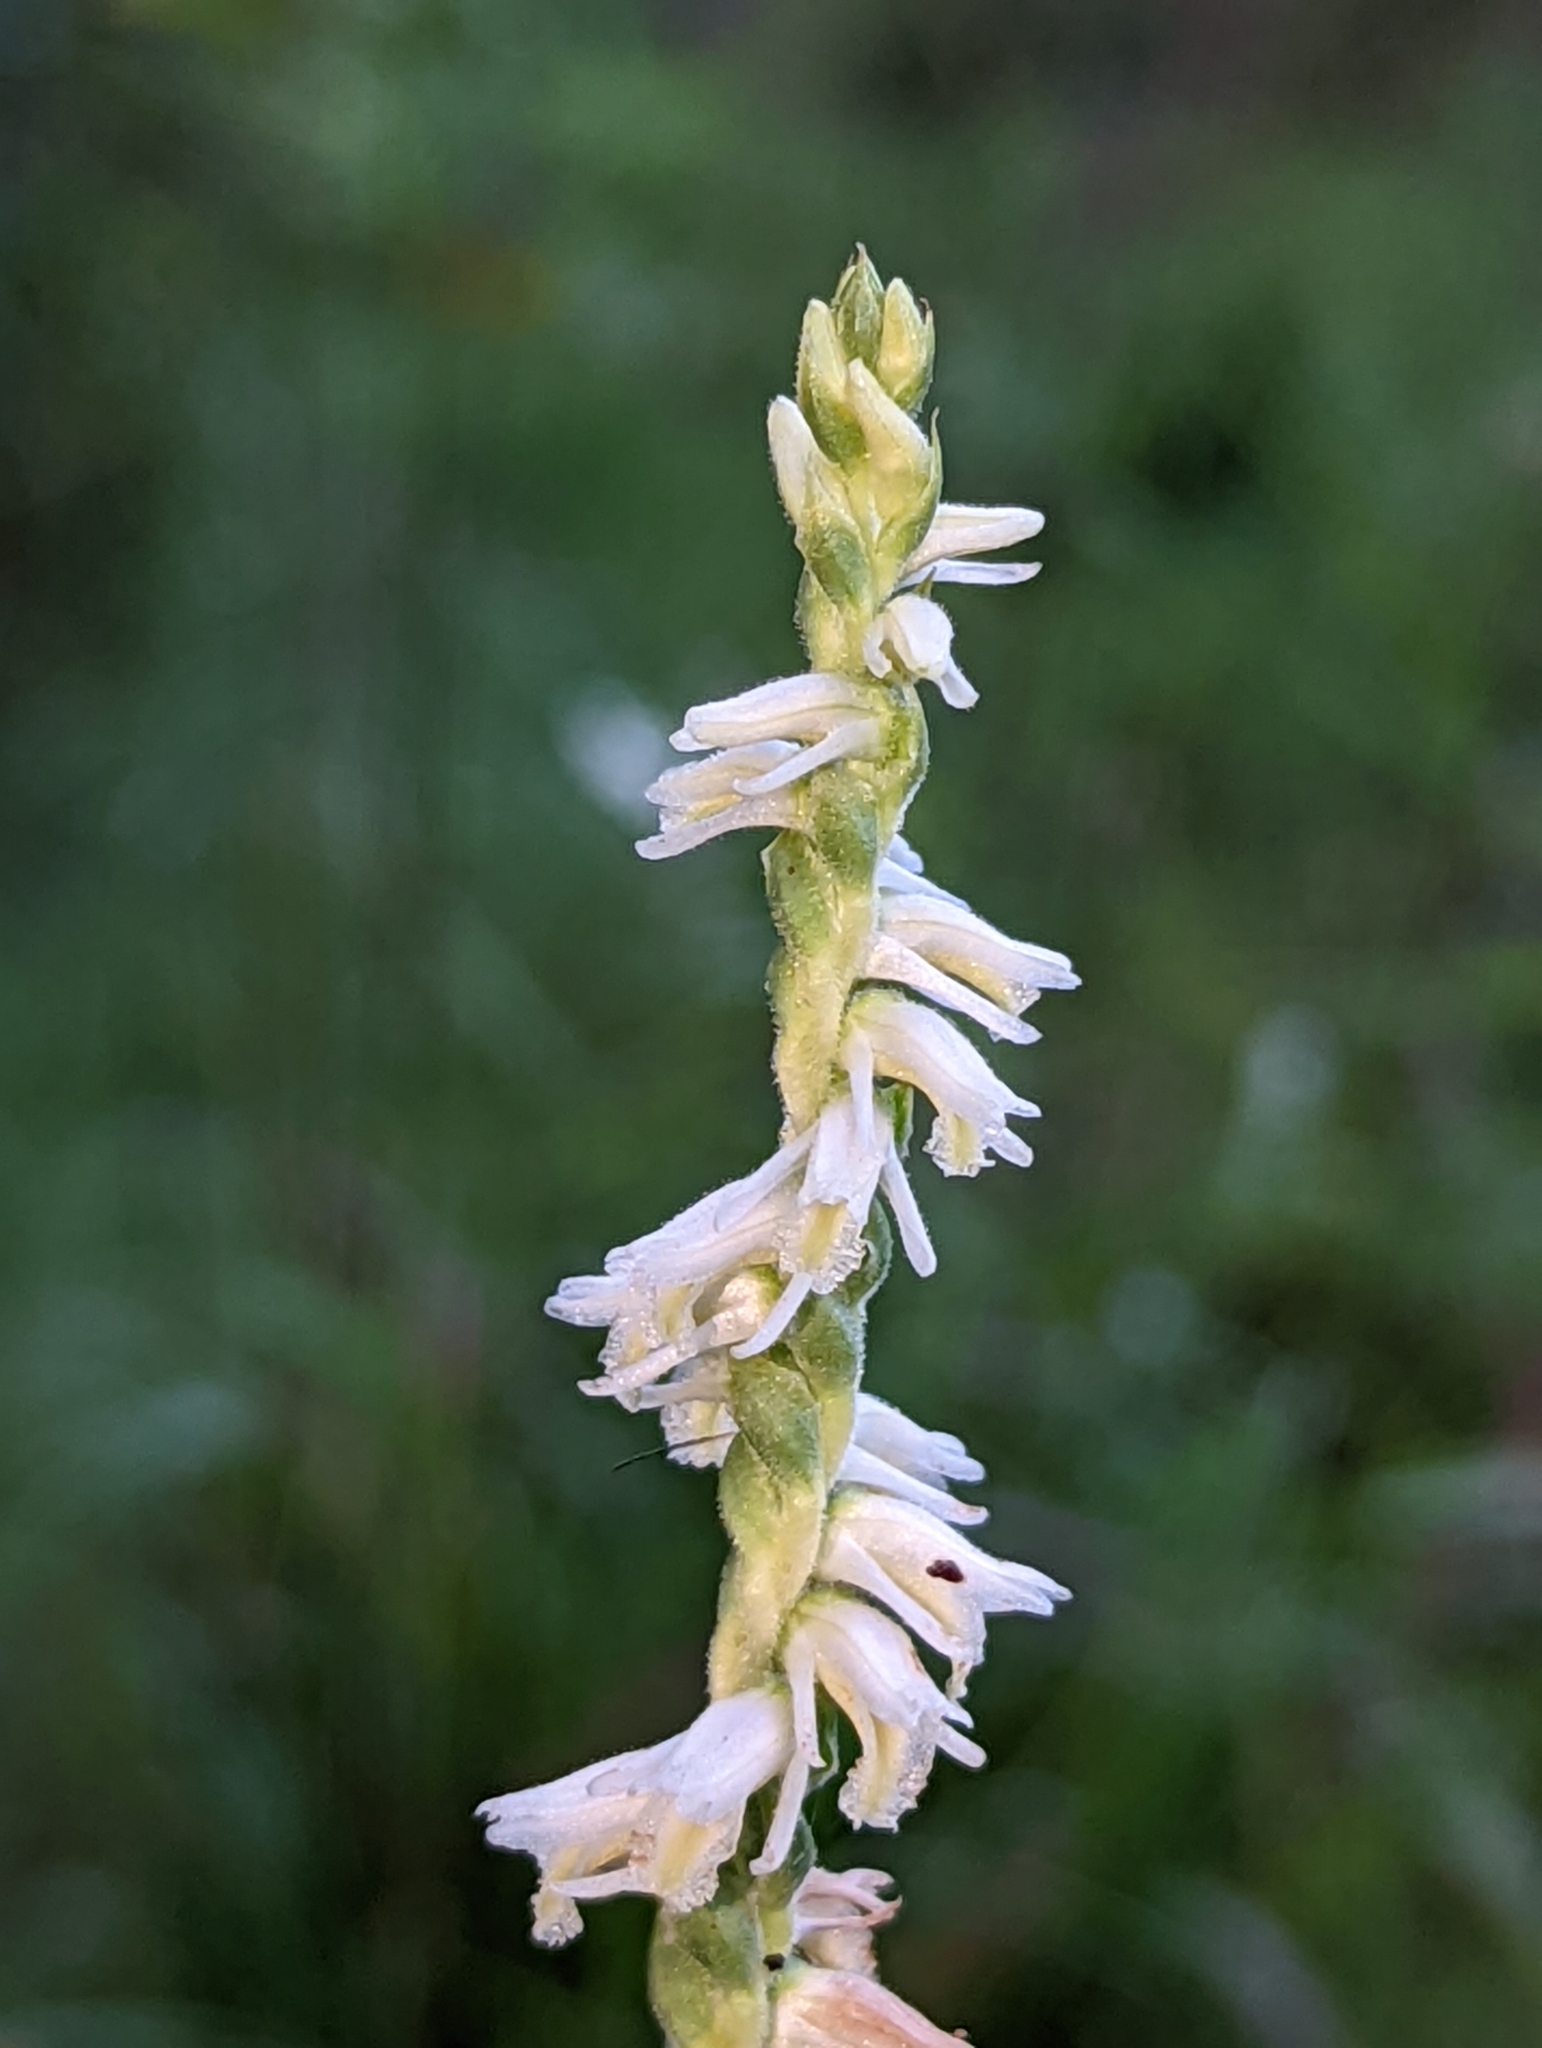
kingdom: Plantae
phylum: Tracheophyta
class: Liliopsida
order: Asparagales
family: Orchidaceae
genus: Spiranthes
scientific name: Spiranthes vernalis
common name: Spring ladies'-tresses
